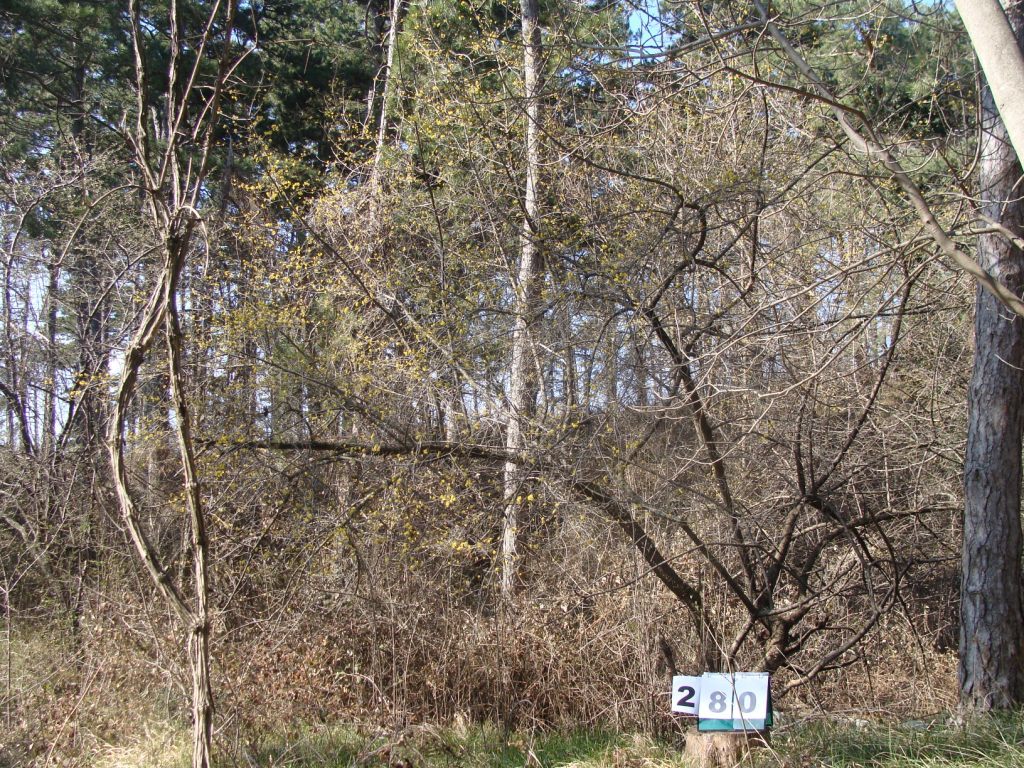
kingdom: Plantae
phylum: Tracheophyta
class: Magnoliopsida
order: Cornales
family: Cornaceae
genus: Cornus
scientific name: Cornus mas
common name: Cornelian-cherry
